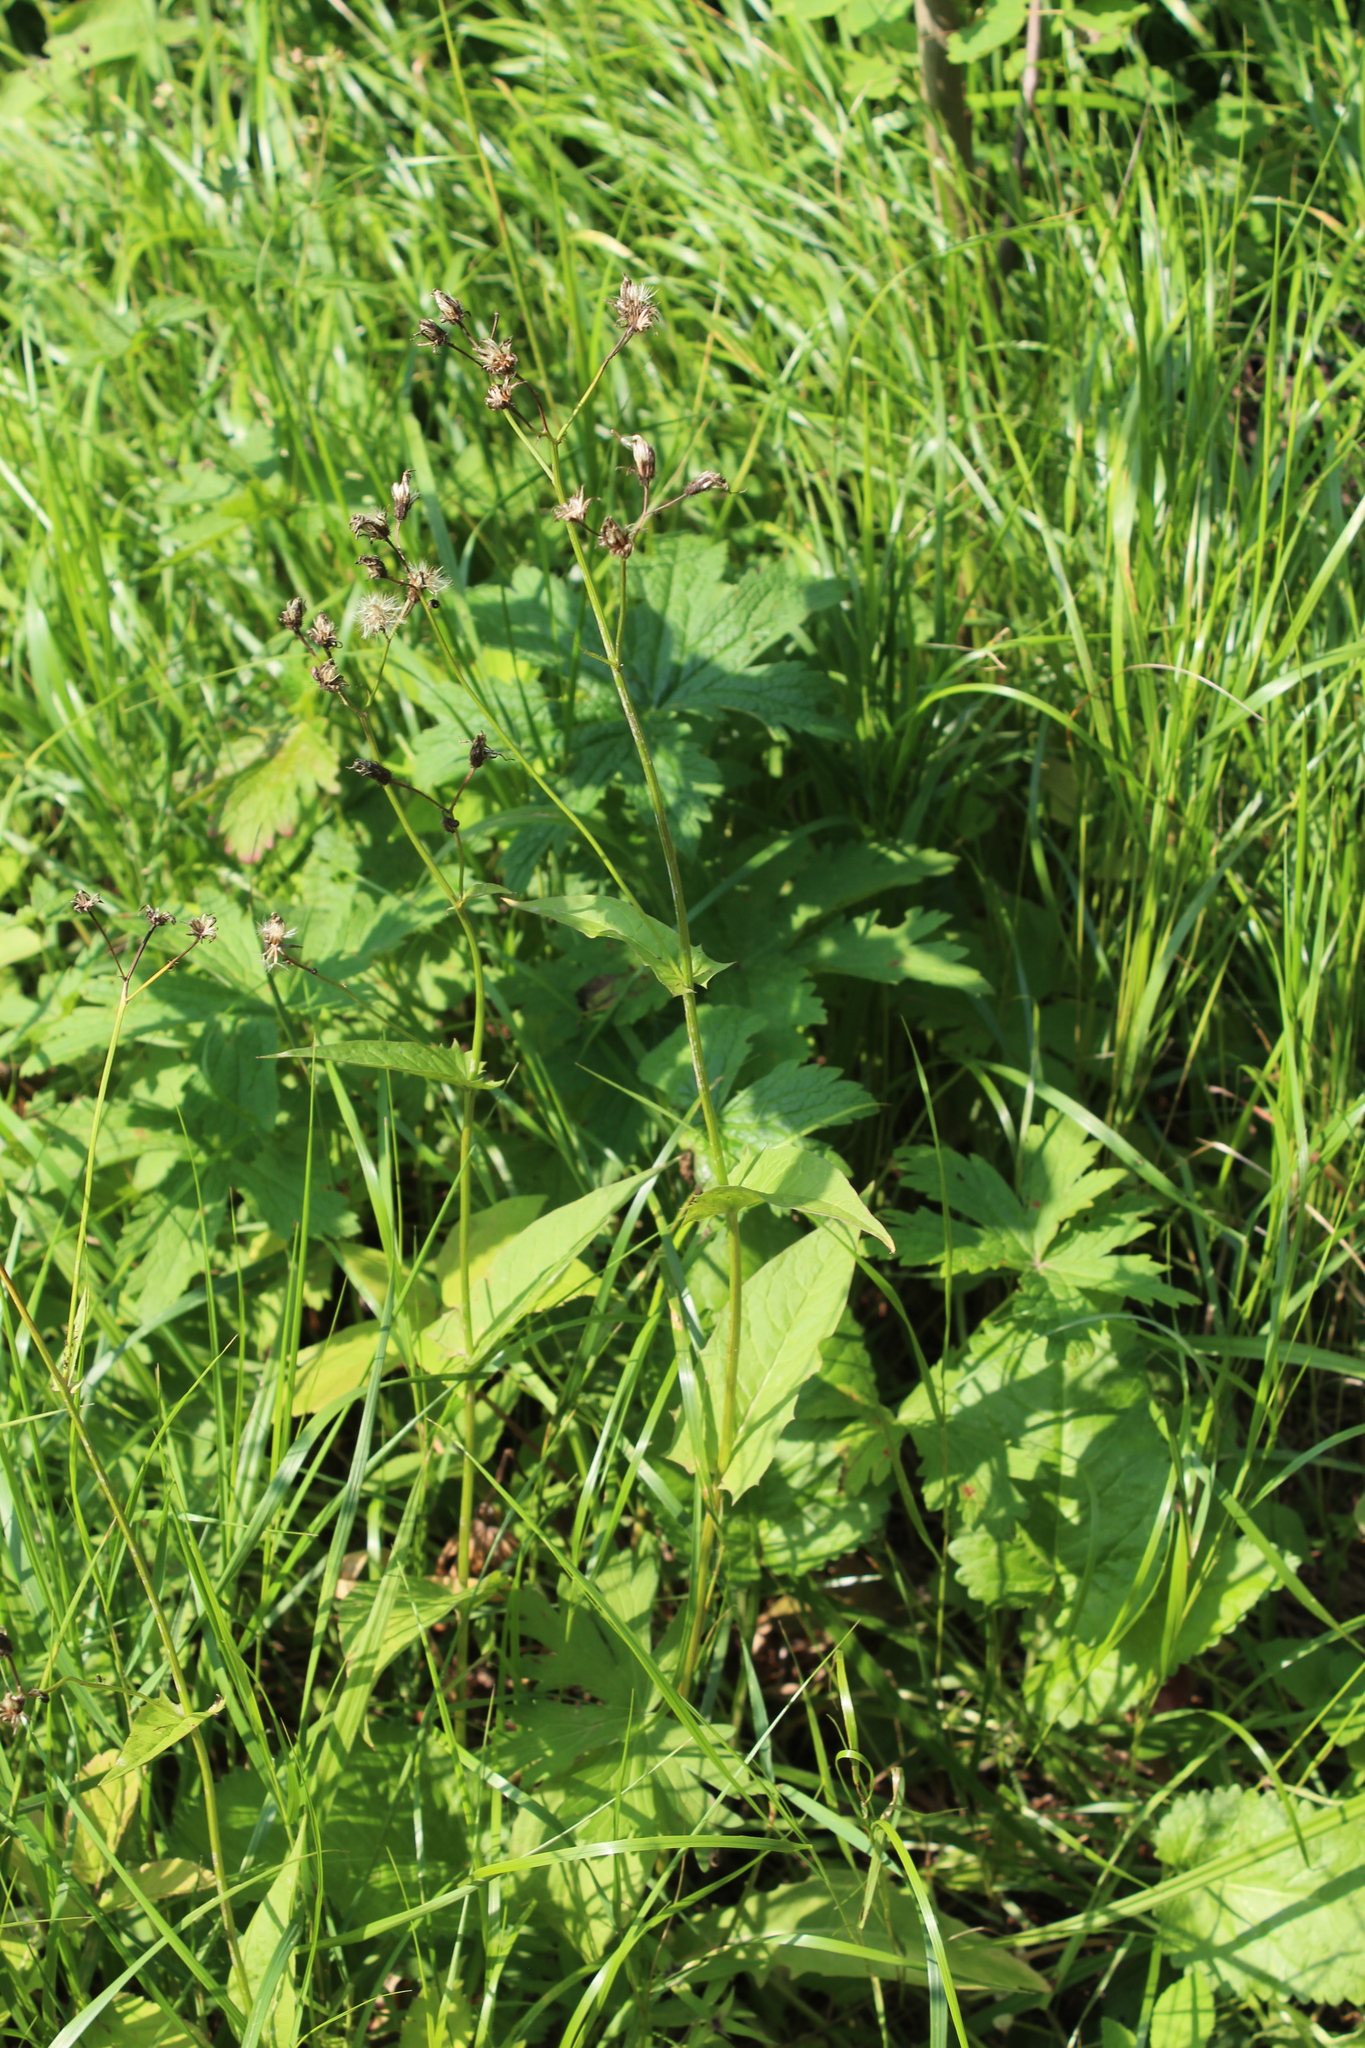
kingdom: Plantae
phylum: Tracheophyta
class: Magnoliopsida
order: Asterales
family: Asteraceae
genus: Crepis
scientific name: Crepis paludosa
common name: Marsh hawk's-beard
